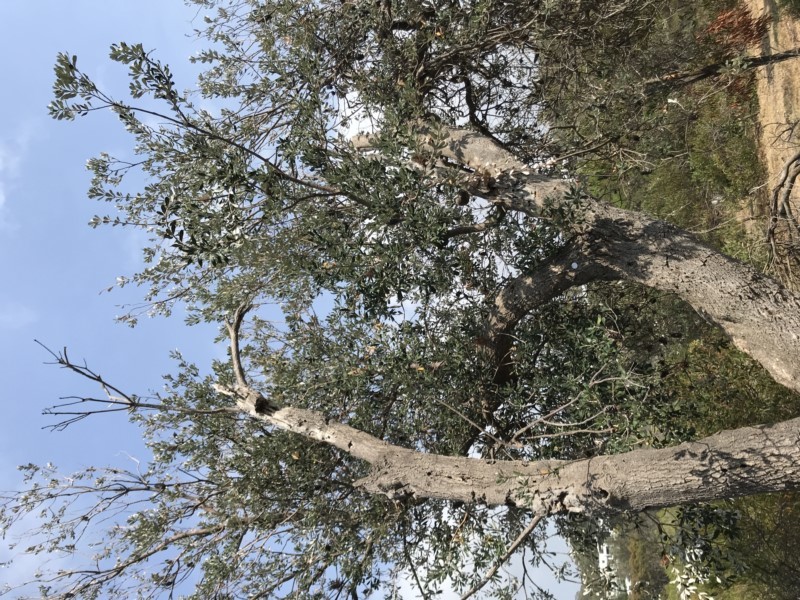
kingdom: Plantae
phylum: Tracheophyta
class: Magnoliopsida
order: Proteales
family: Proteaceae
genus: Banksia
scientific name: Banksia integrifolia
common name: White-honeysuckle
